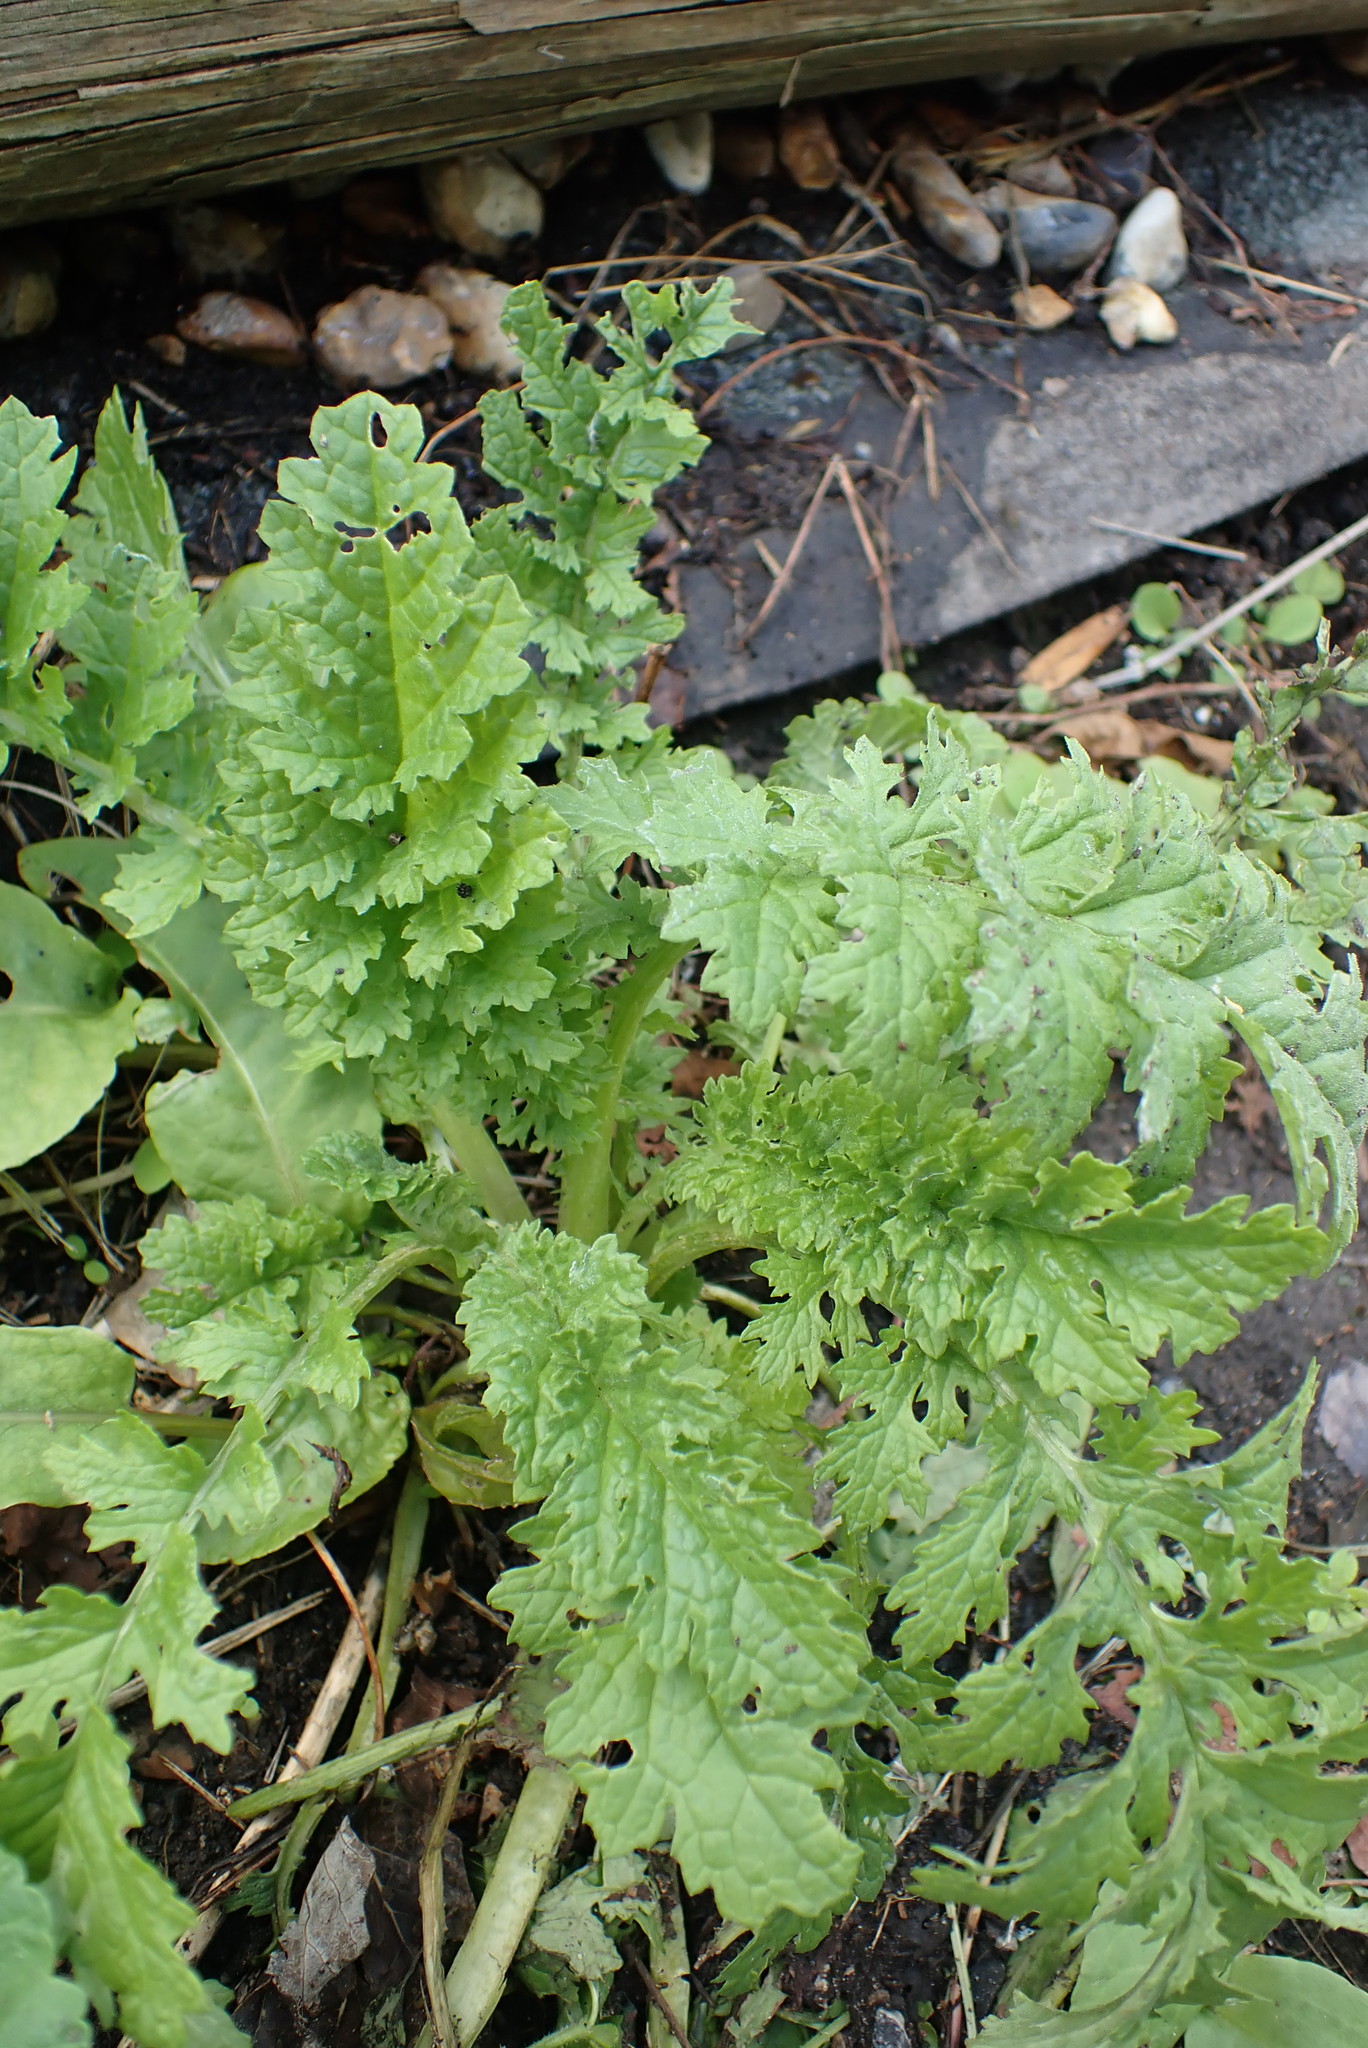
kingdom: Plantae
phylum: Tracheophyta
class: Magnoliopsida
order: Asterales
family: Asteraceae
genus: Jacobaea
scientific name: Jacobaea vulgaris
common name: Stinking willie
